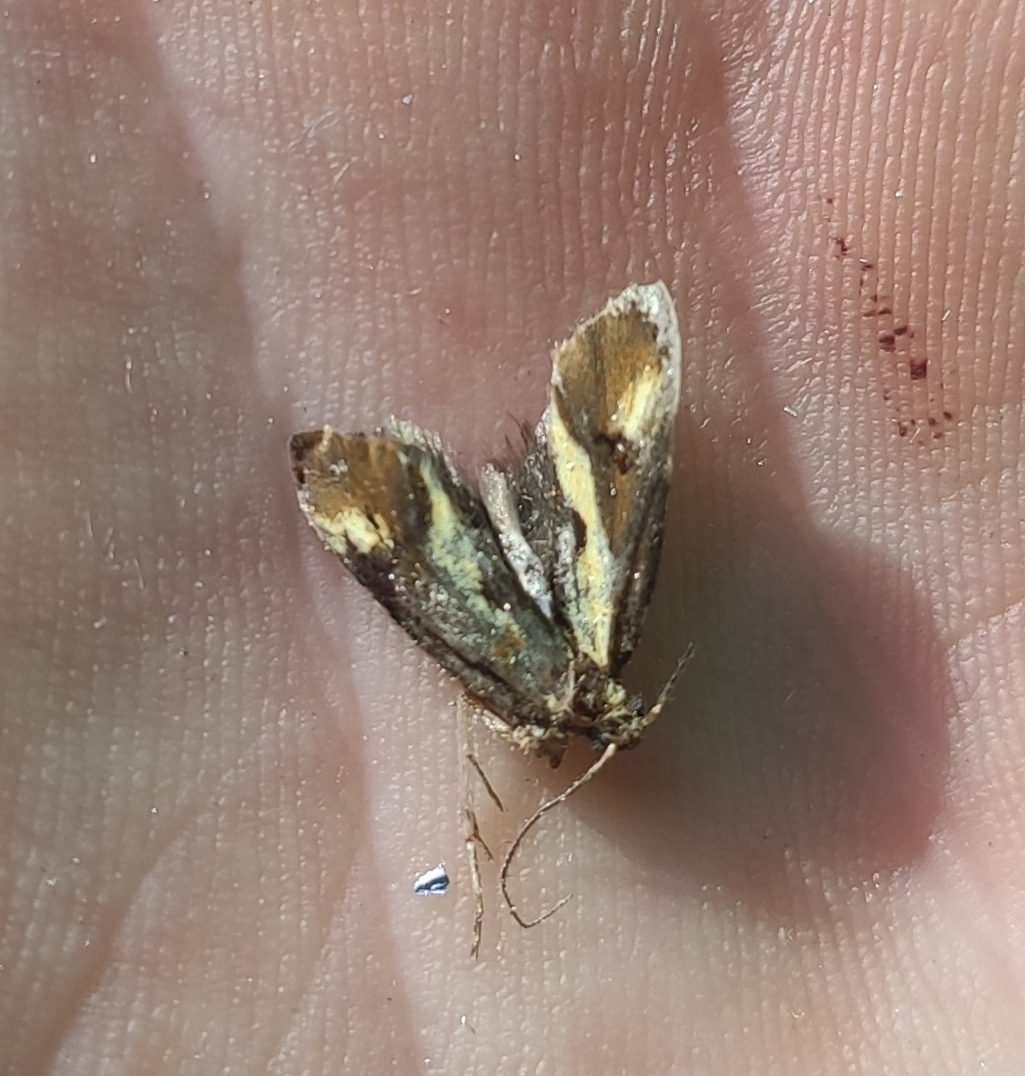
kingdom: Animalia
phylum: Arthropoda
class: Insecta
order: Lepidoptera
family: Oecophoridae
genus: Harpella
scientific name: Harpella forficella
